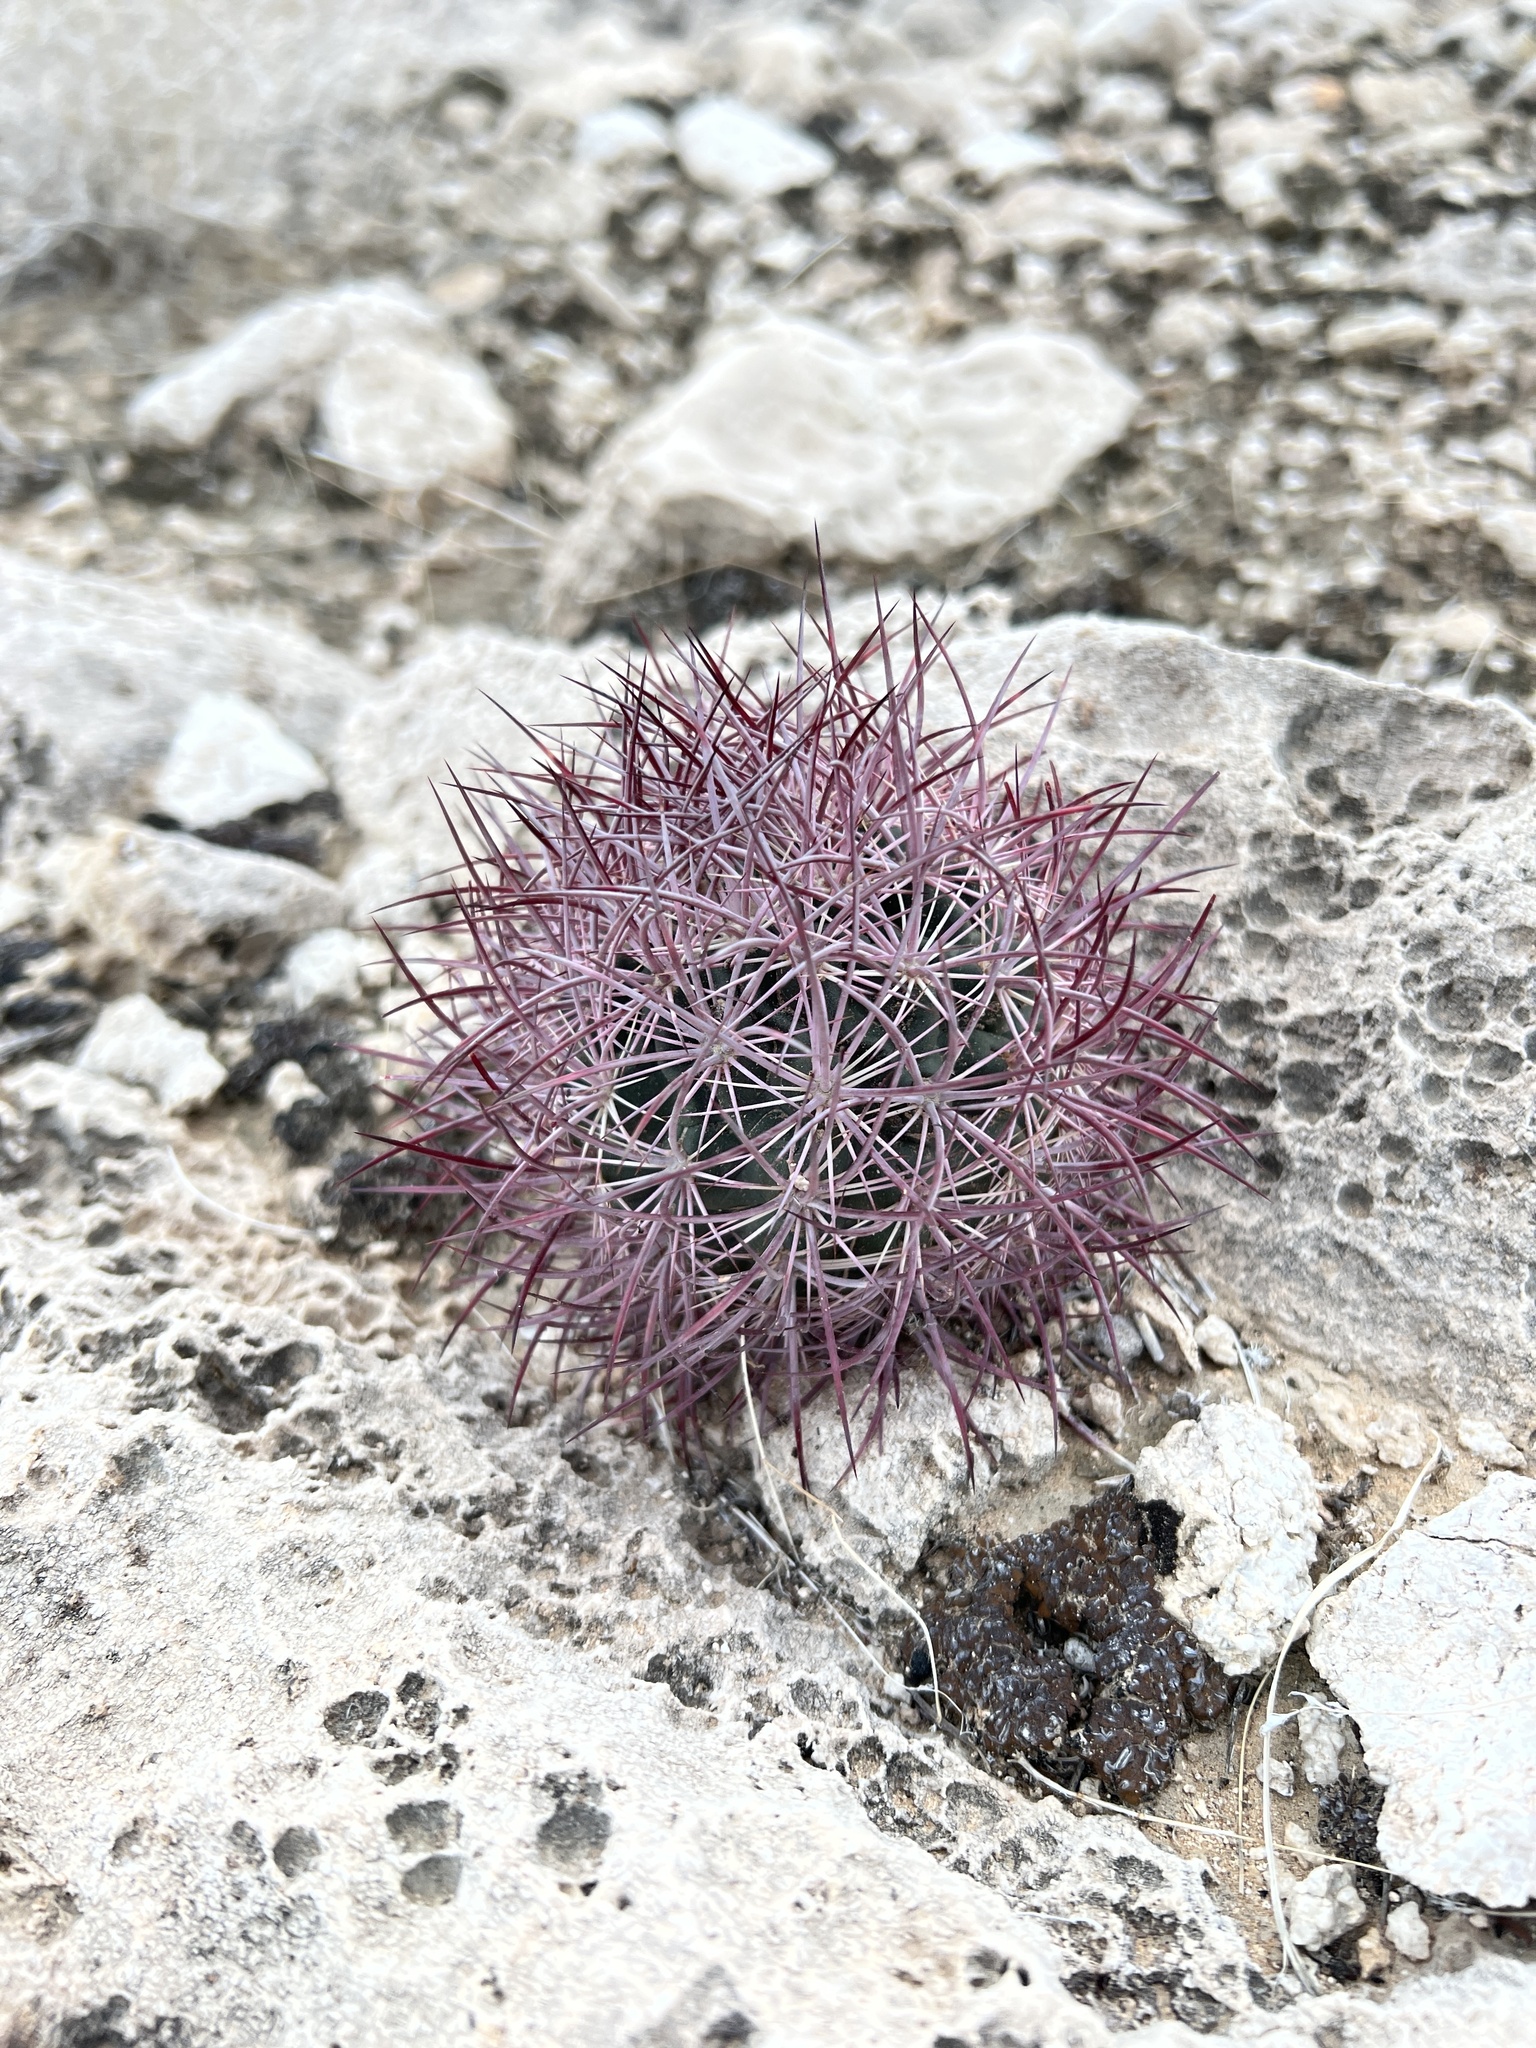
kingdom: Plantae
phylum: Tracheophyta
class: Magnoliopsida
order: Caryophyllales
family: Cactaceae
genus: Sclerocactus
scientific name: Sclerocactus johnsonii
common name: Eight-spine fishhook cactus
